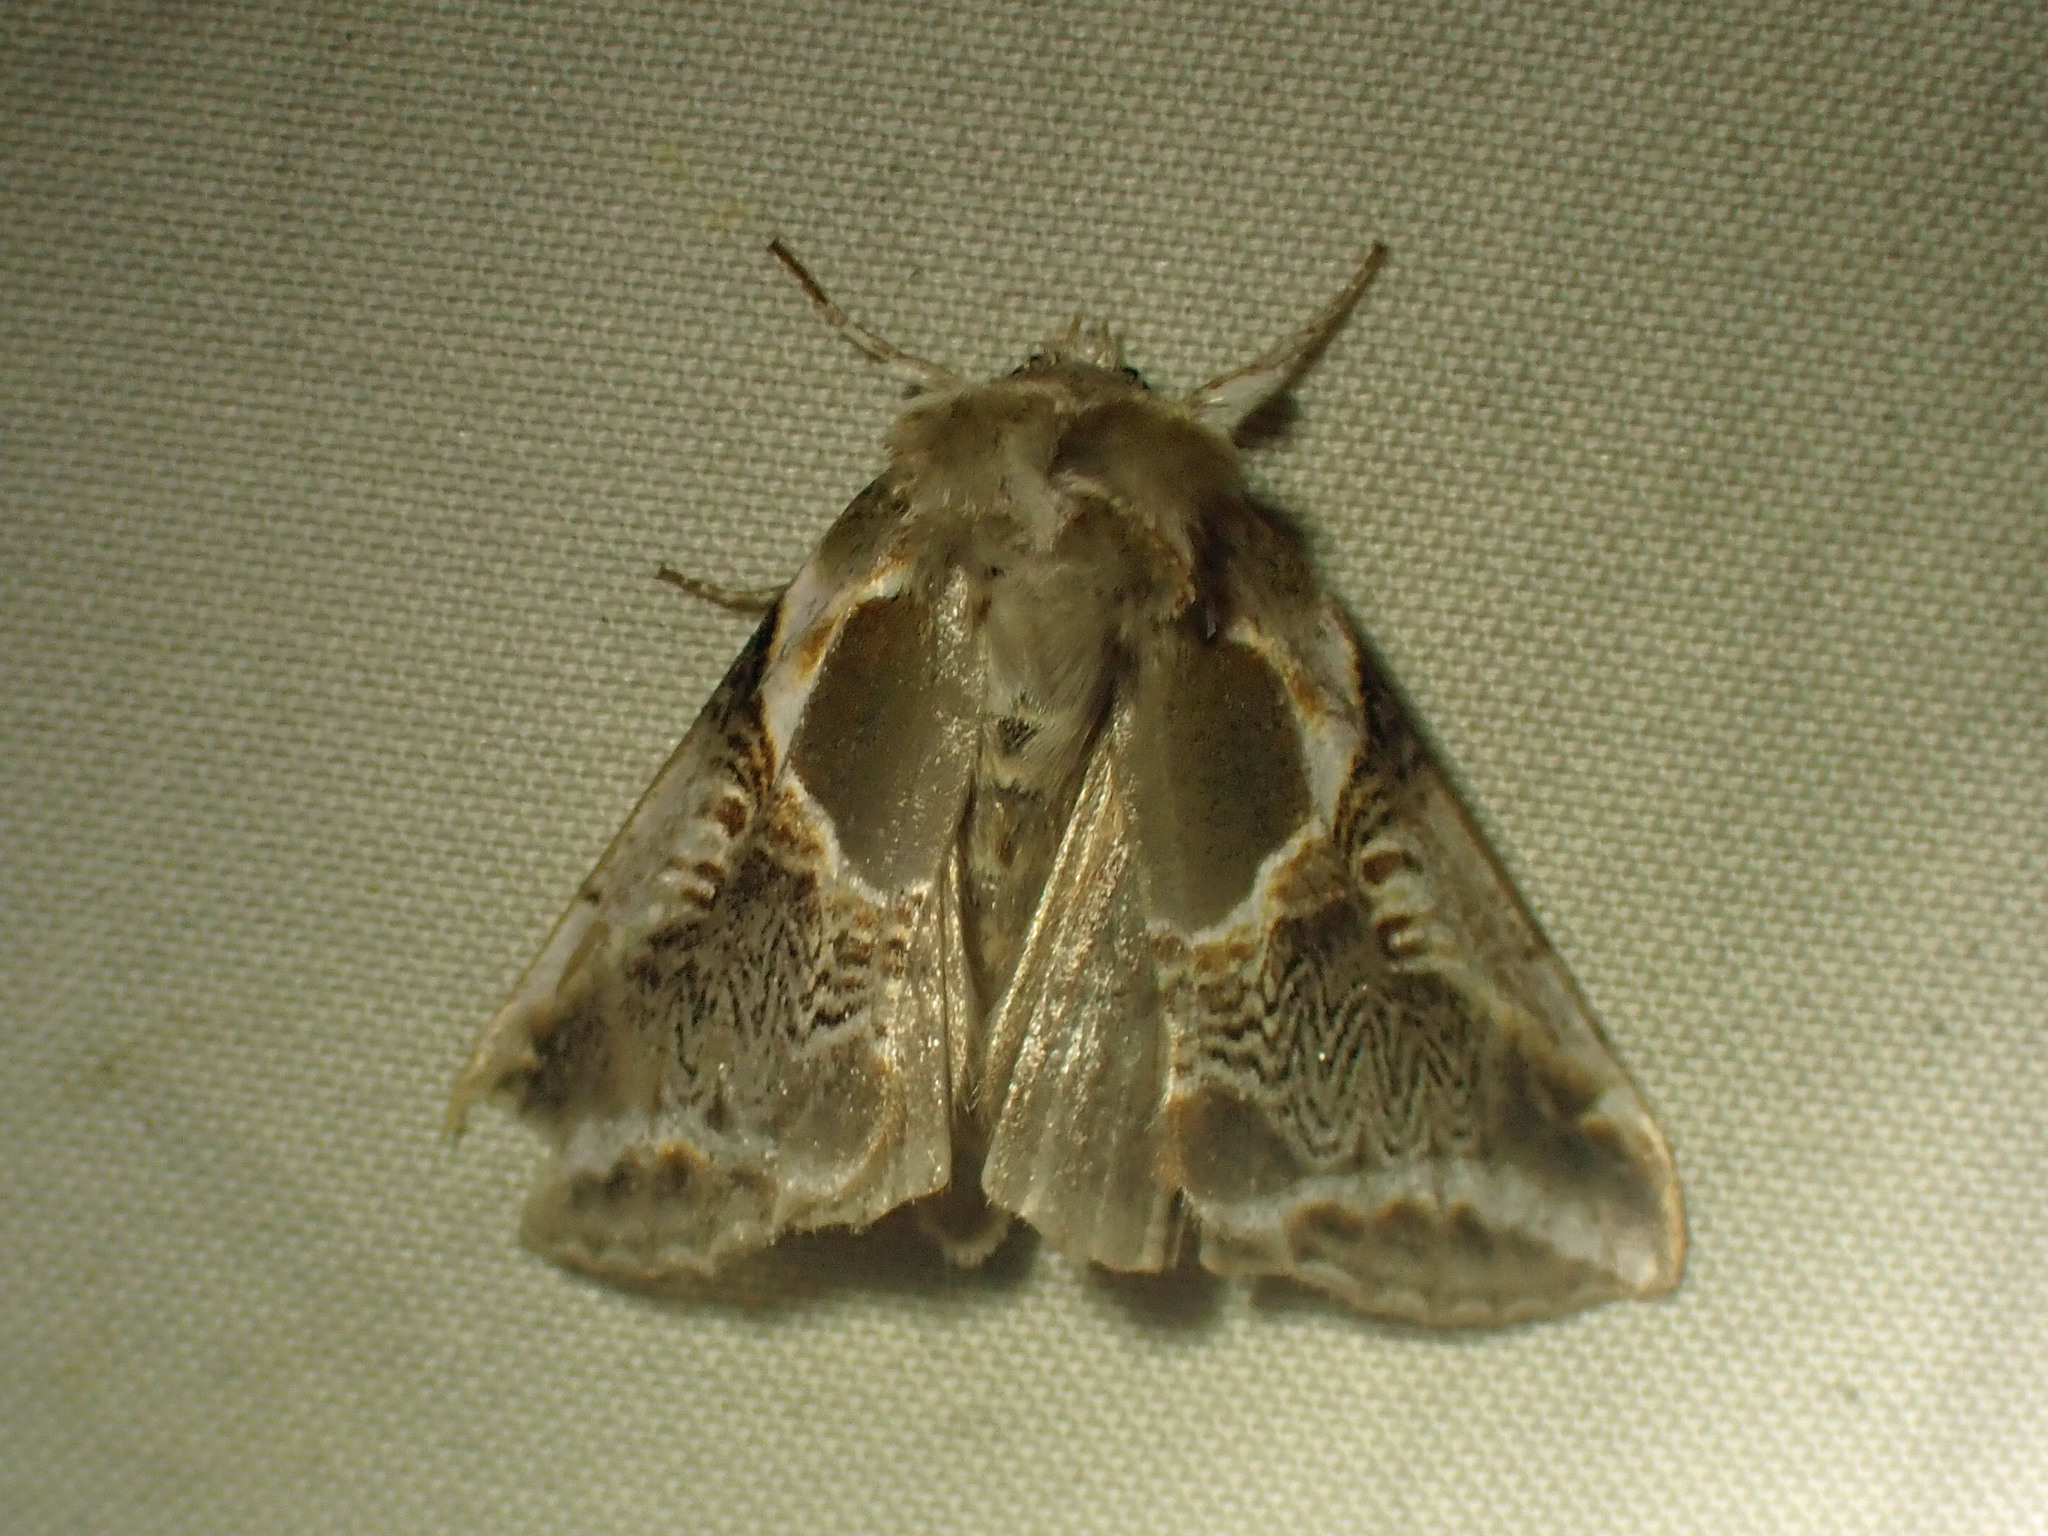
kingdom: Animalia
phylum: Arthropoda
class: Insecta
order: Lepidoptera
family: Drepanidae
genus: Habrosyne
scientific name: Habrosyne scripta
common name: Lettered habrosyne moth
